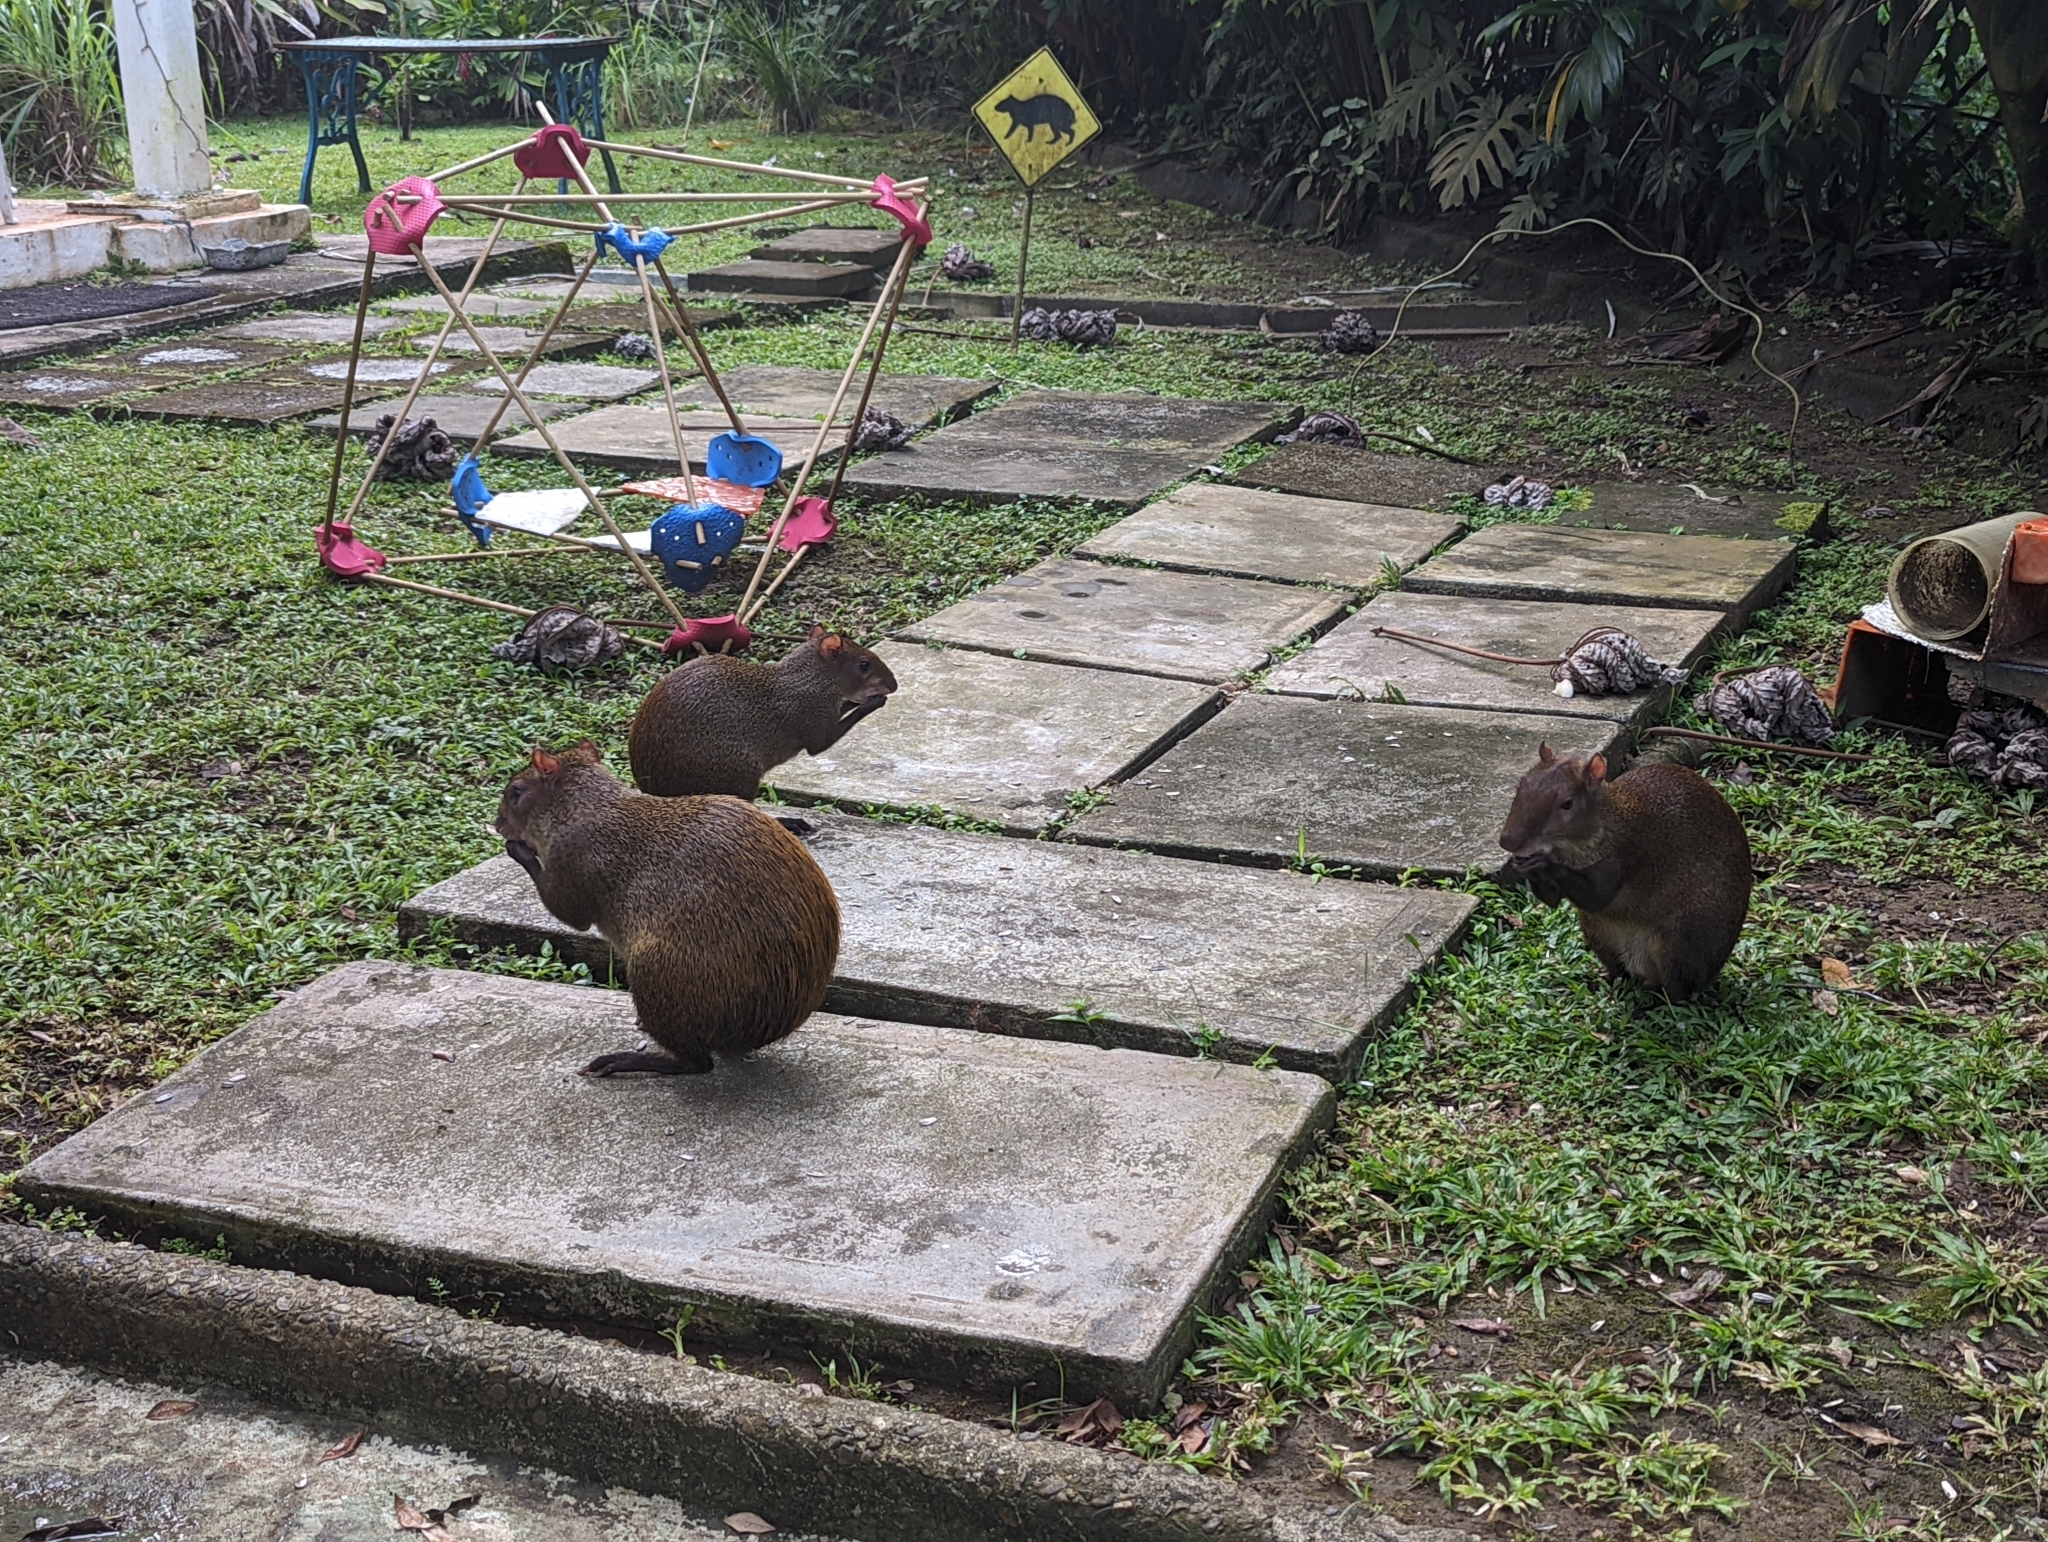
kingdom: Animalia
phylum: Chordata
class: Mammalia
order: Rodentia
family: Dasyproctidae
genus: Dasyprocta
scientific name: Dasyprocta punctata
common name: Central american agouti
